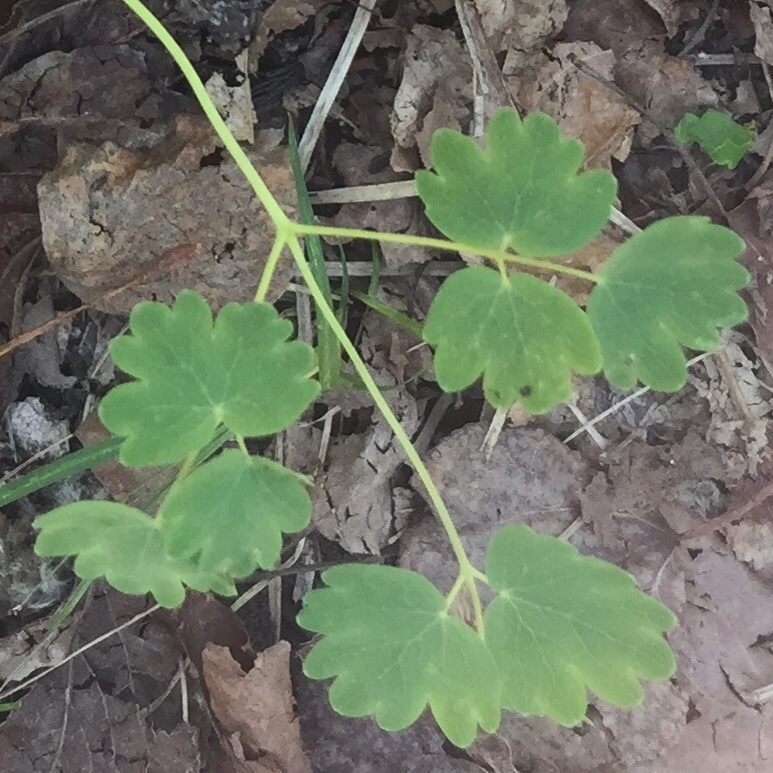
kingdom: Plantae
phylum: Tracheophyta
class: Magnoliopsida
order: Ranunculales
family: Ranunculaceae
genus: Thalictrum
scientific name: Thalictrum venulosum
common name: Early meadow-rue
